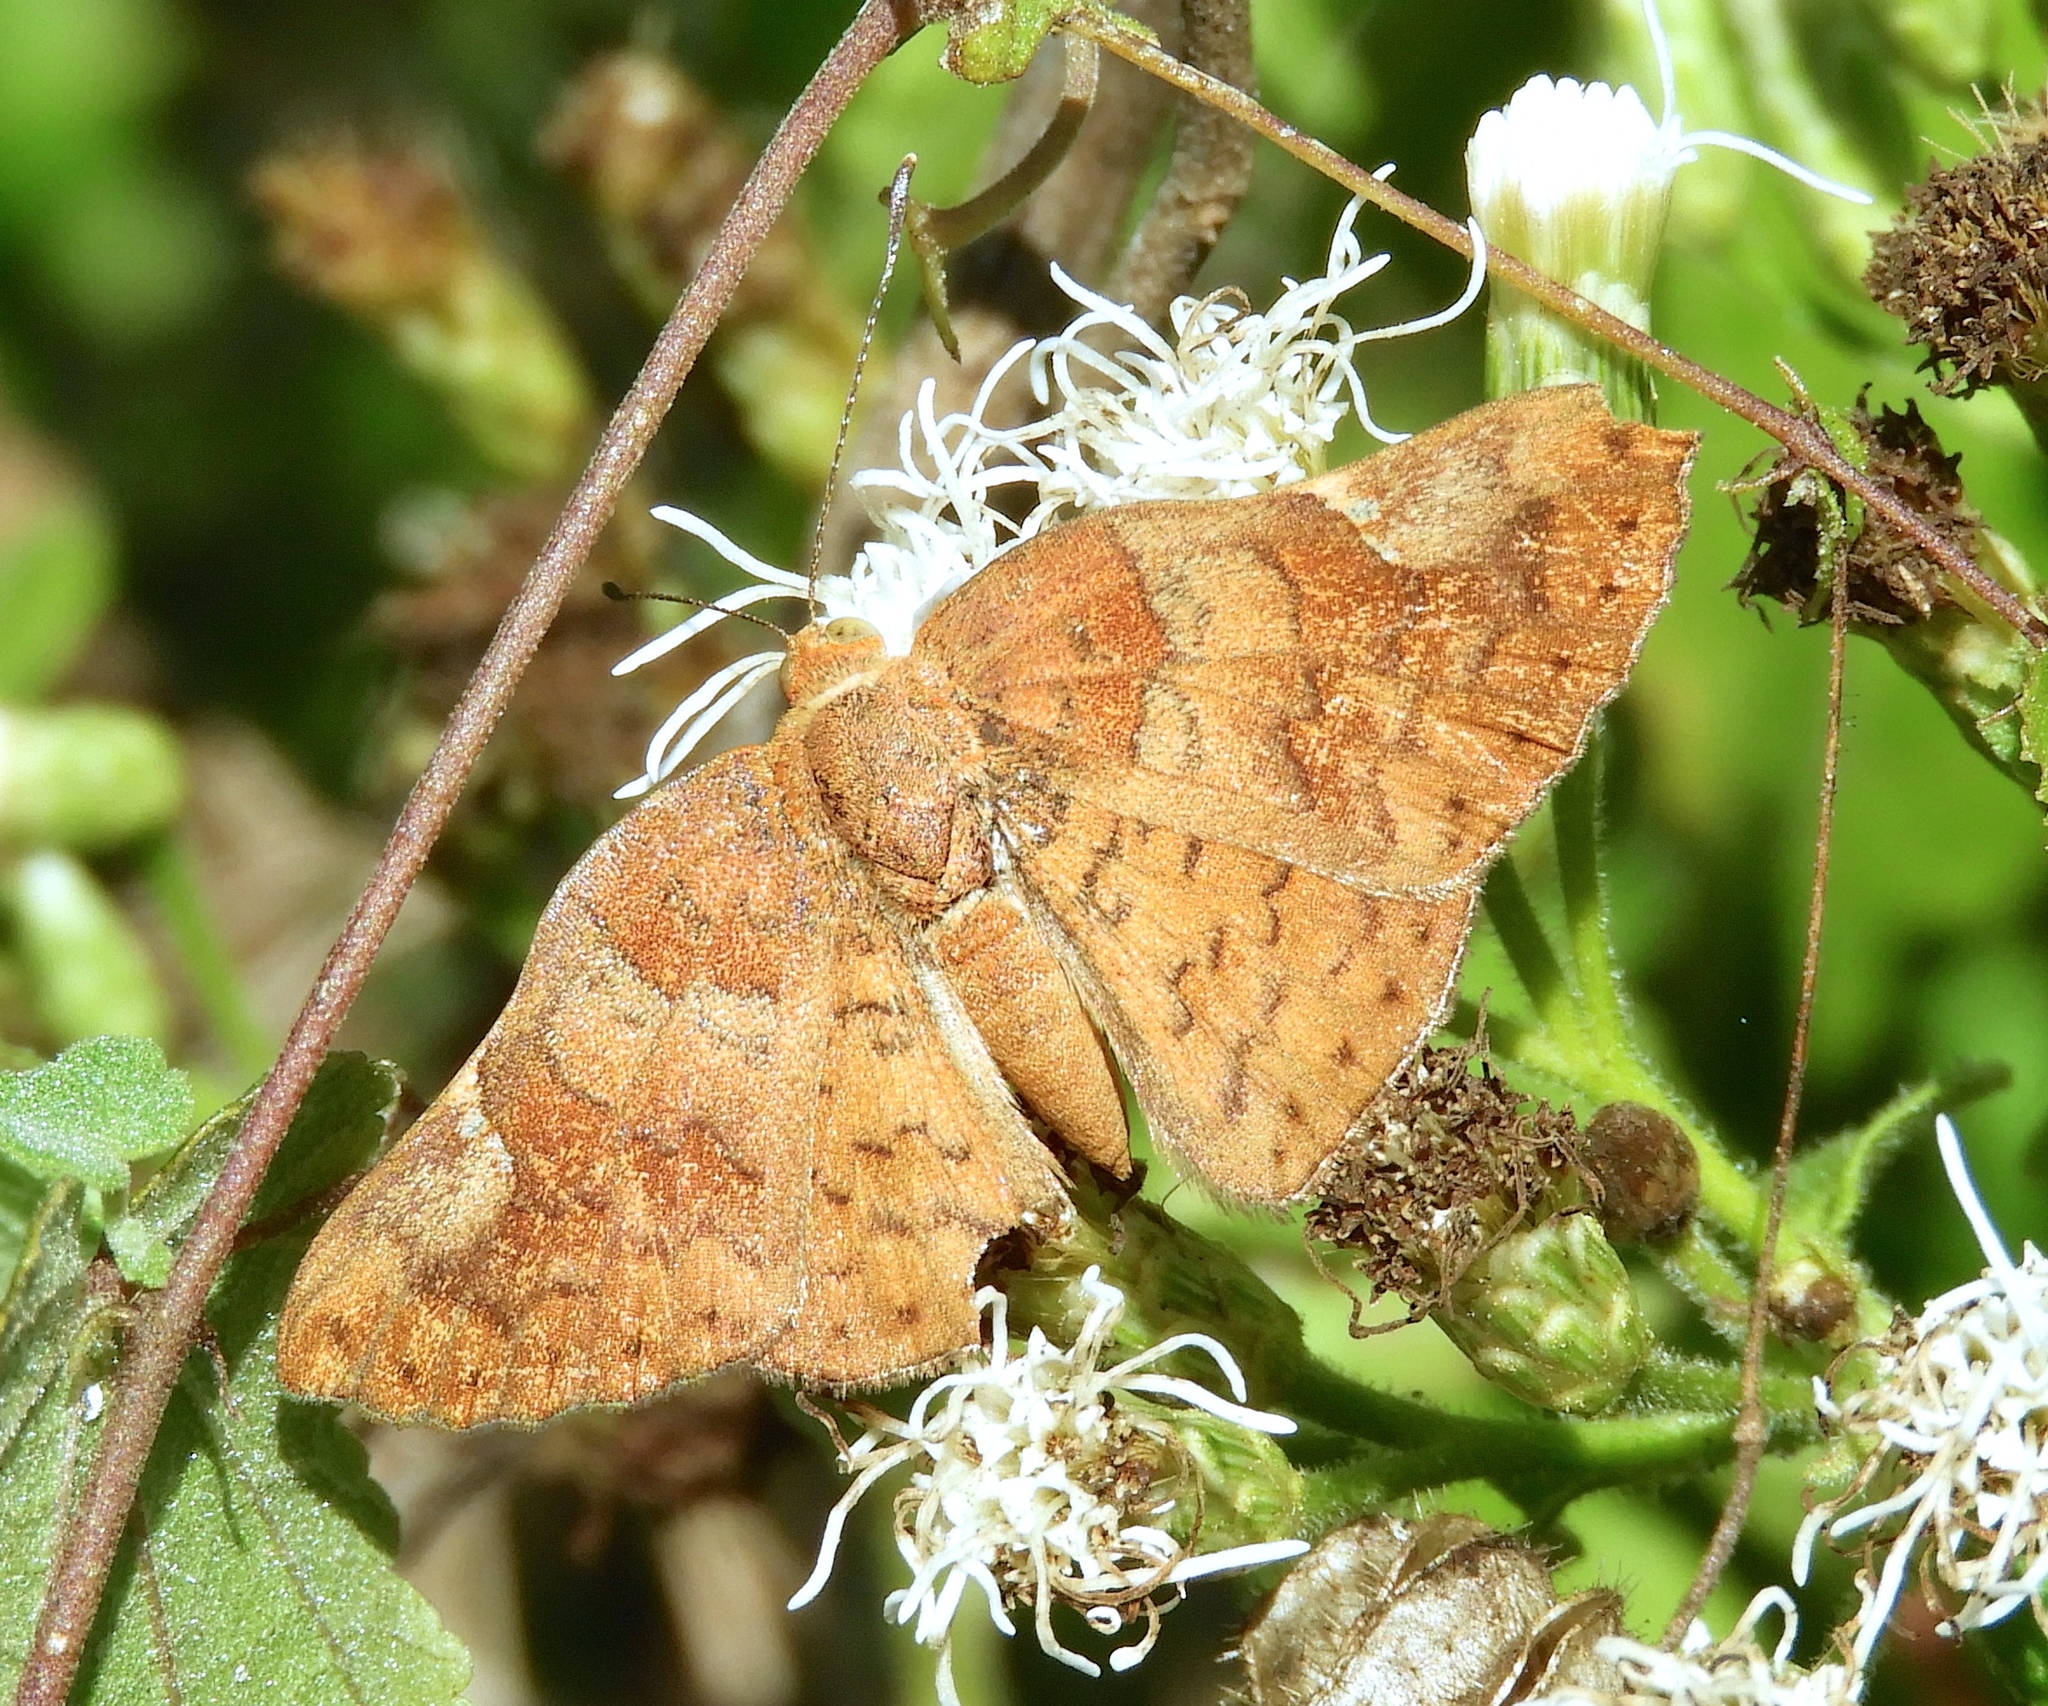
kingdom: Animalia
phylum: Arthropoda
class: Insecta
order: Lepidoptera
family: Riodinidae
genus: Curvie
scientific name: Curvie emesia
